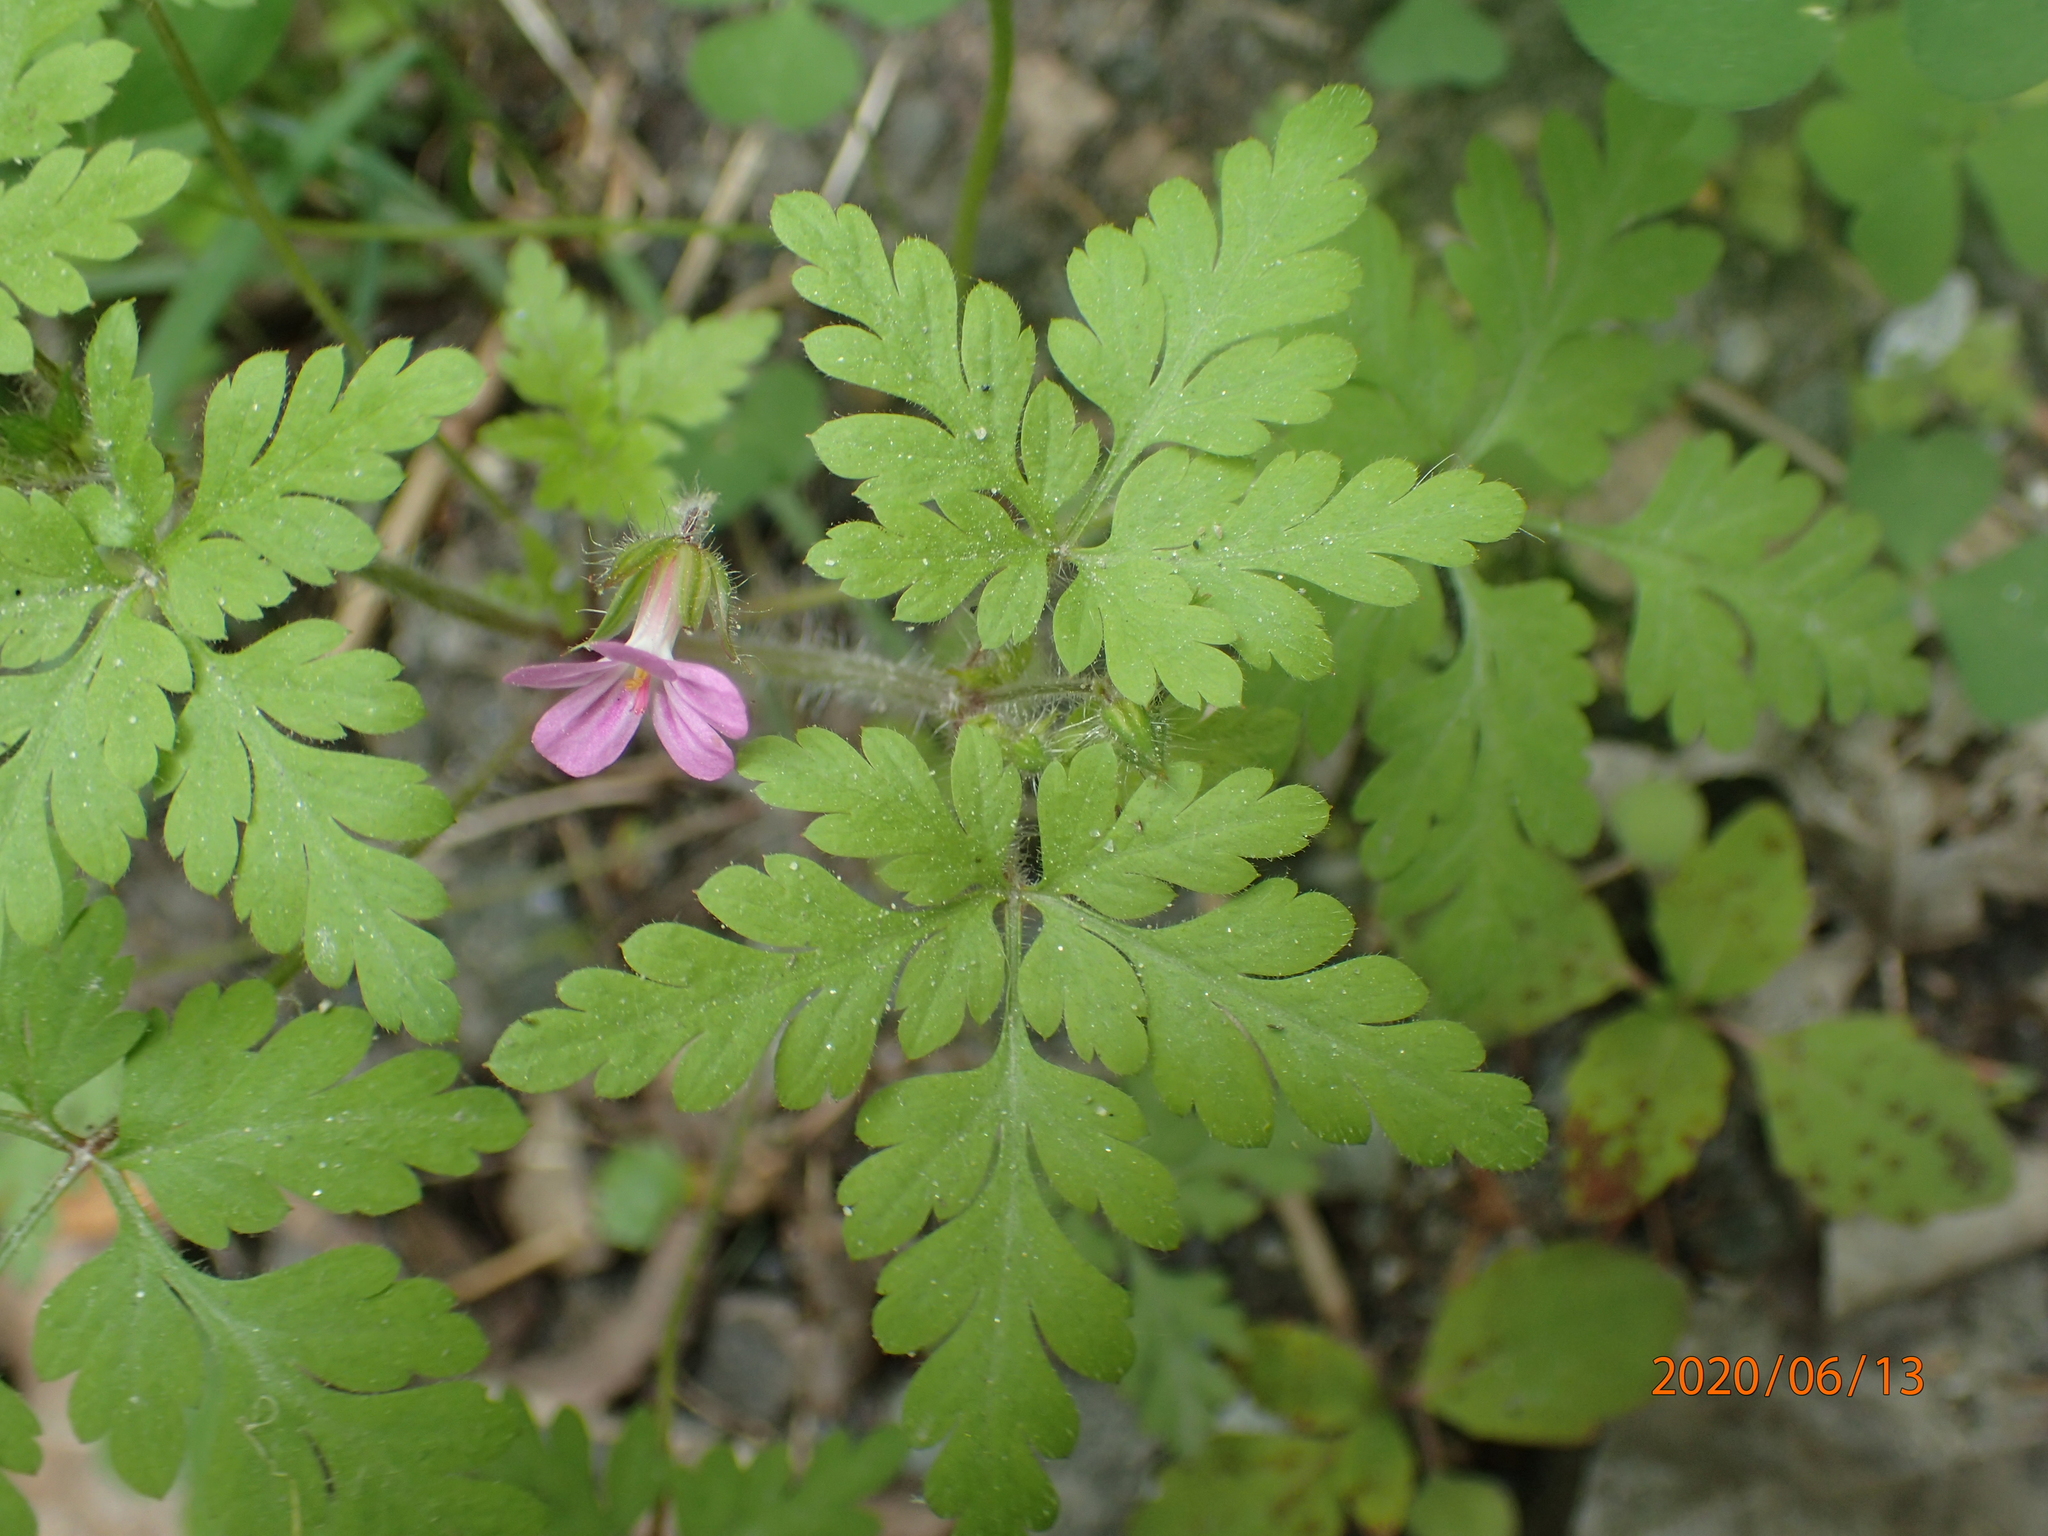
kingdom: Plantae
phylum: Tracheophyta
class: Magnoliopsida
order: Geraniales
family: Geraniaceae
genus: Geranium
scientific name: Geranium robertianum
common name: Herb-robert
